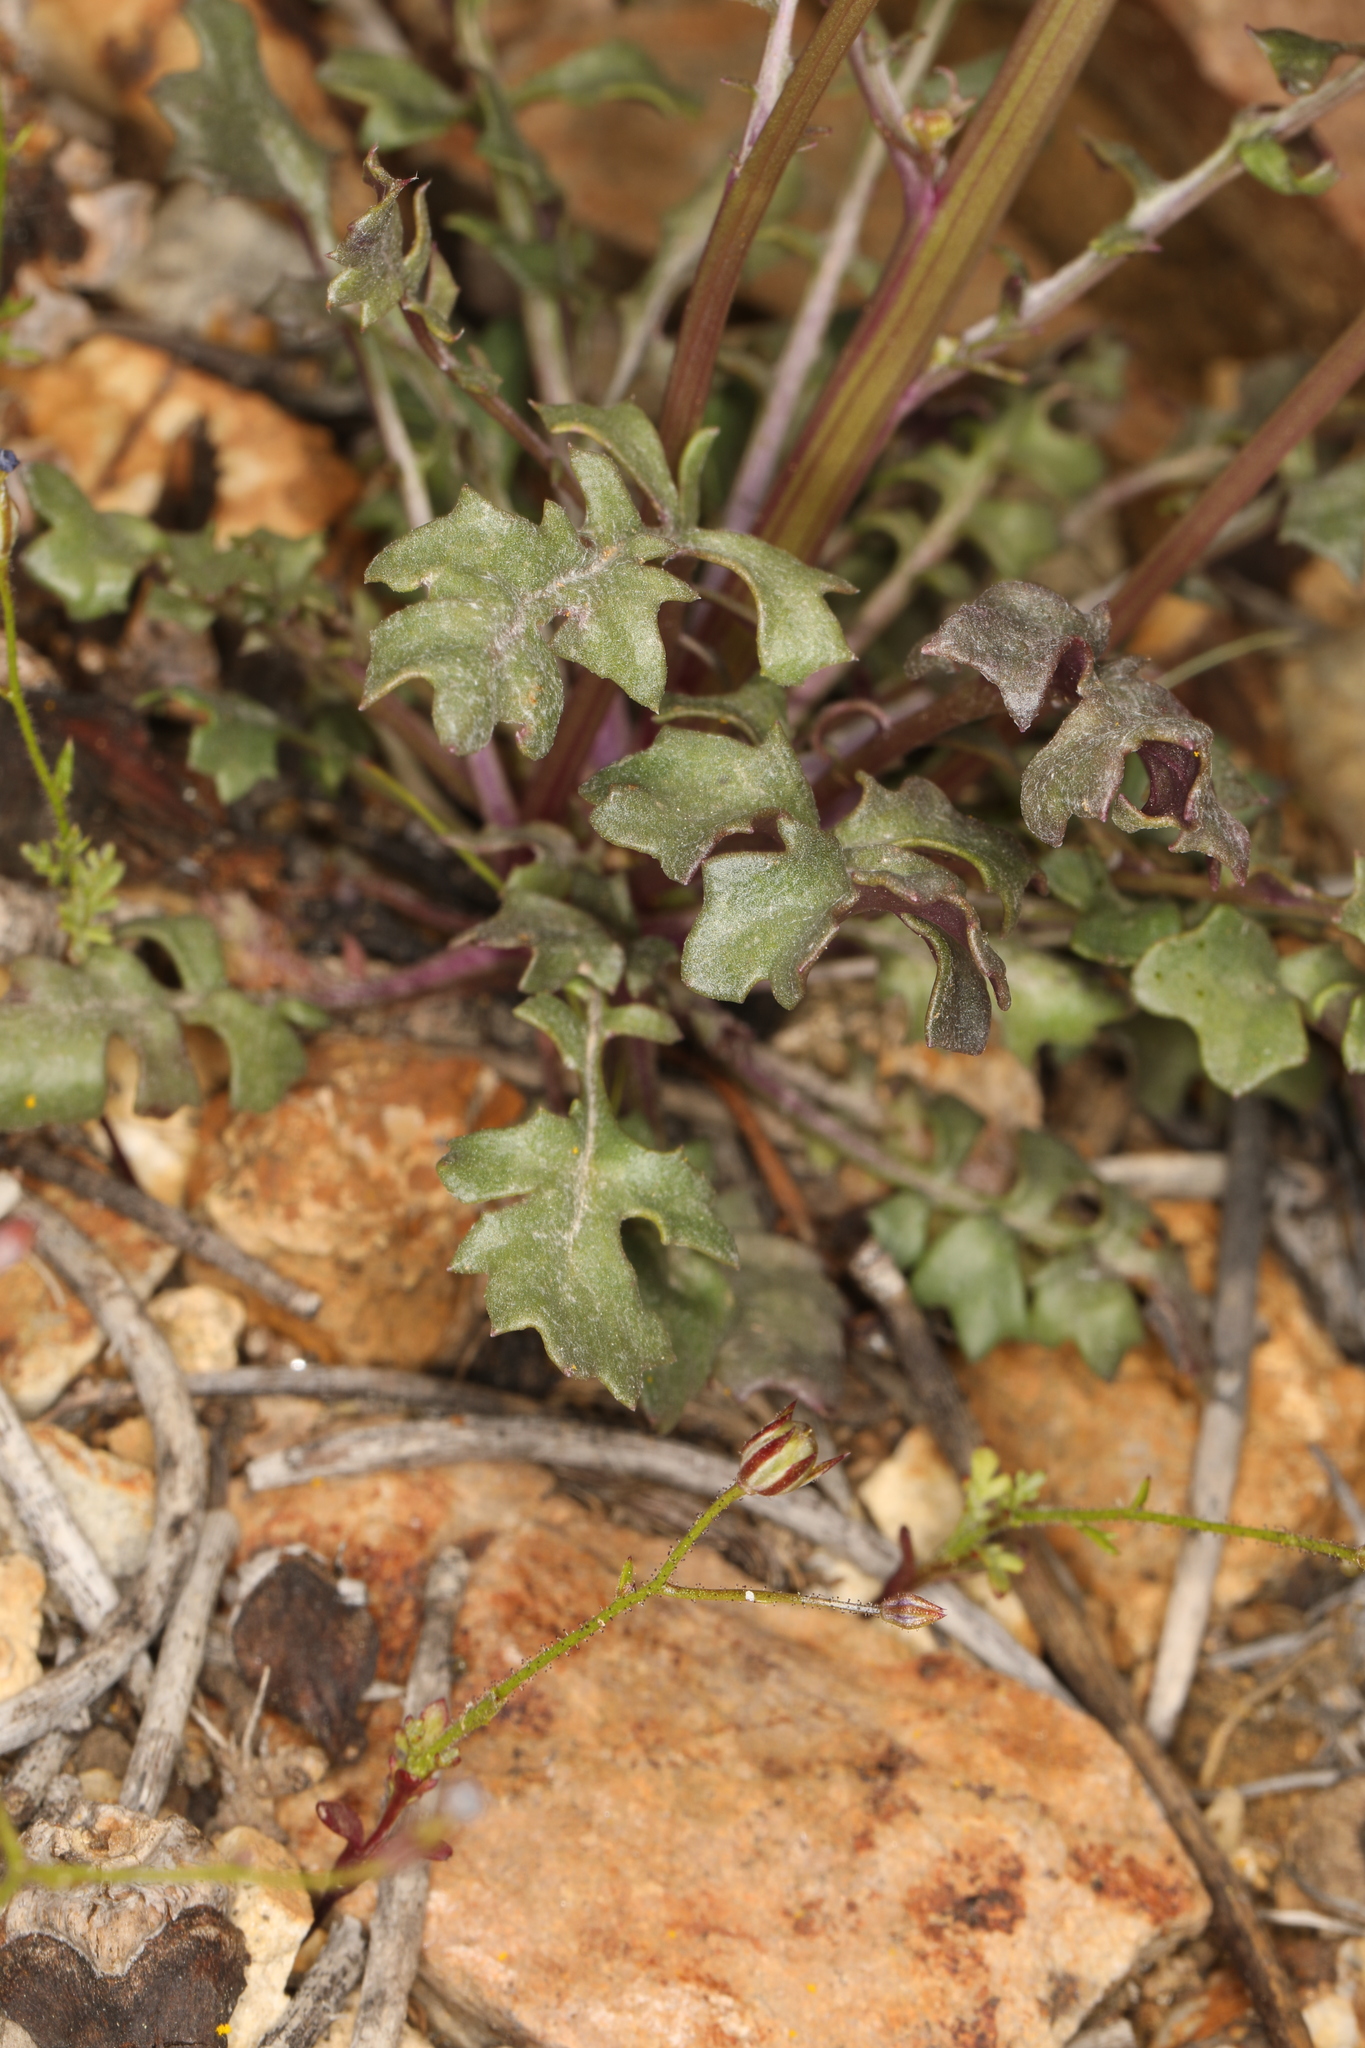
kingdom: Plantae
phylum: Tracheophyta
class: Magnoliopsida
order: Asterales
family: Asteraceae
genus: Packera
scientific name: Packera multilobata
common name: Lobe-leaf groundsel
